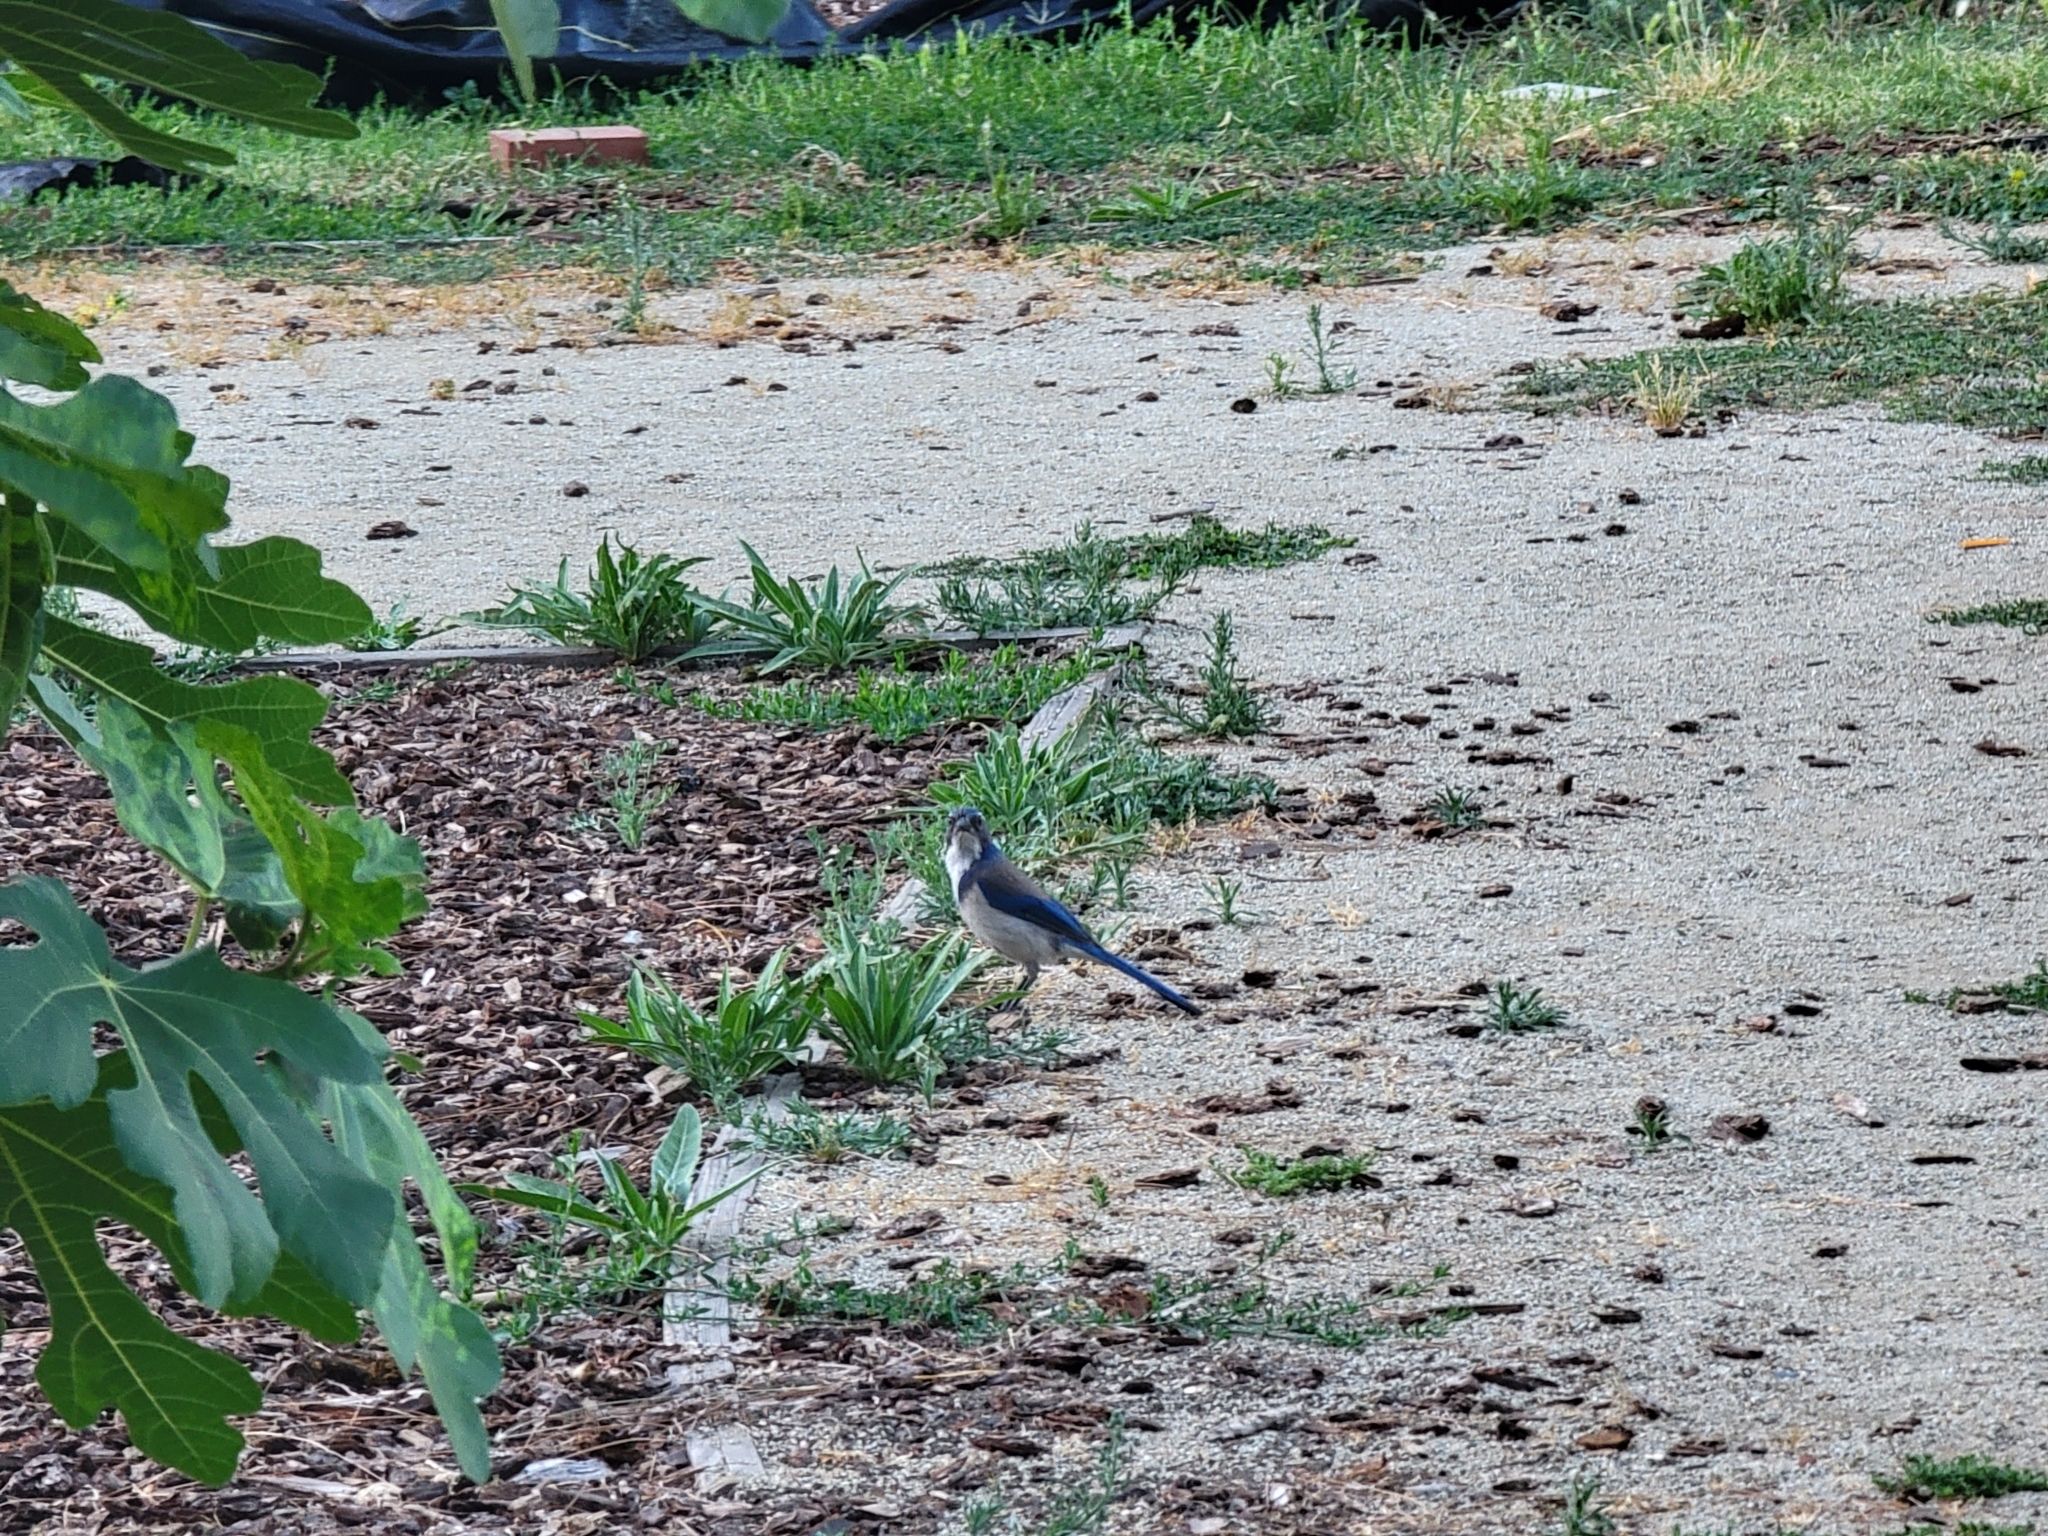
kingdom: Animalia
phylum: Chordata
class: Aves
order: Passeriformes
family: Corvidae
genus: Aphelocoma
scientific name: Aphelocoma californica
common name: California scrub-jay
